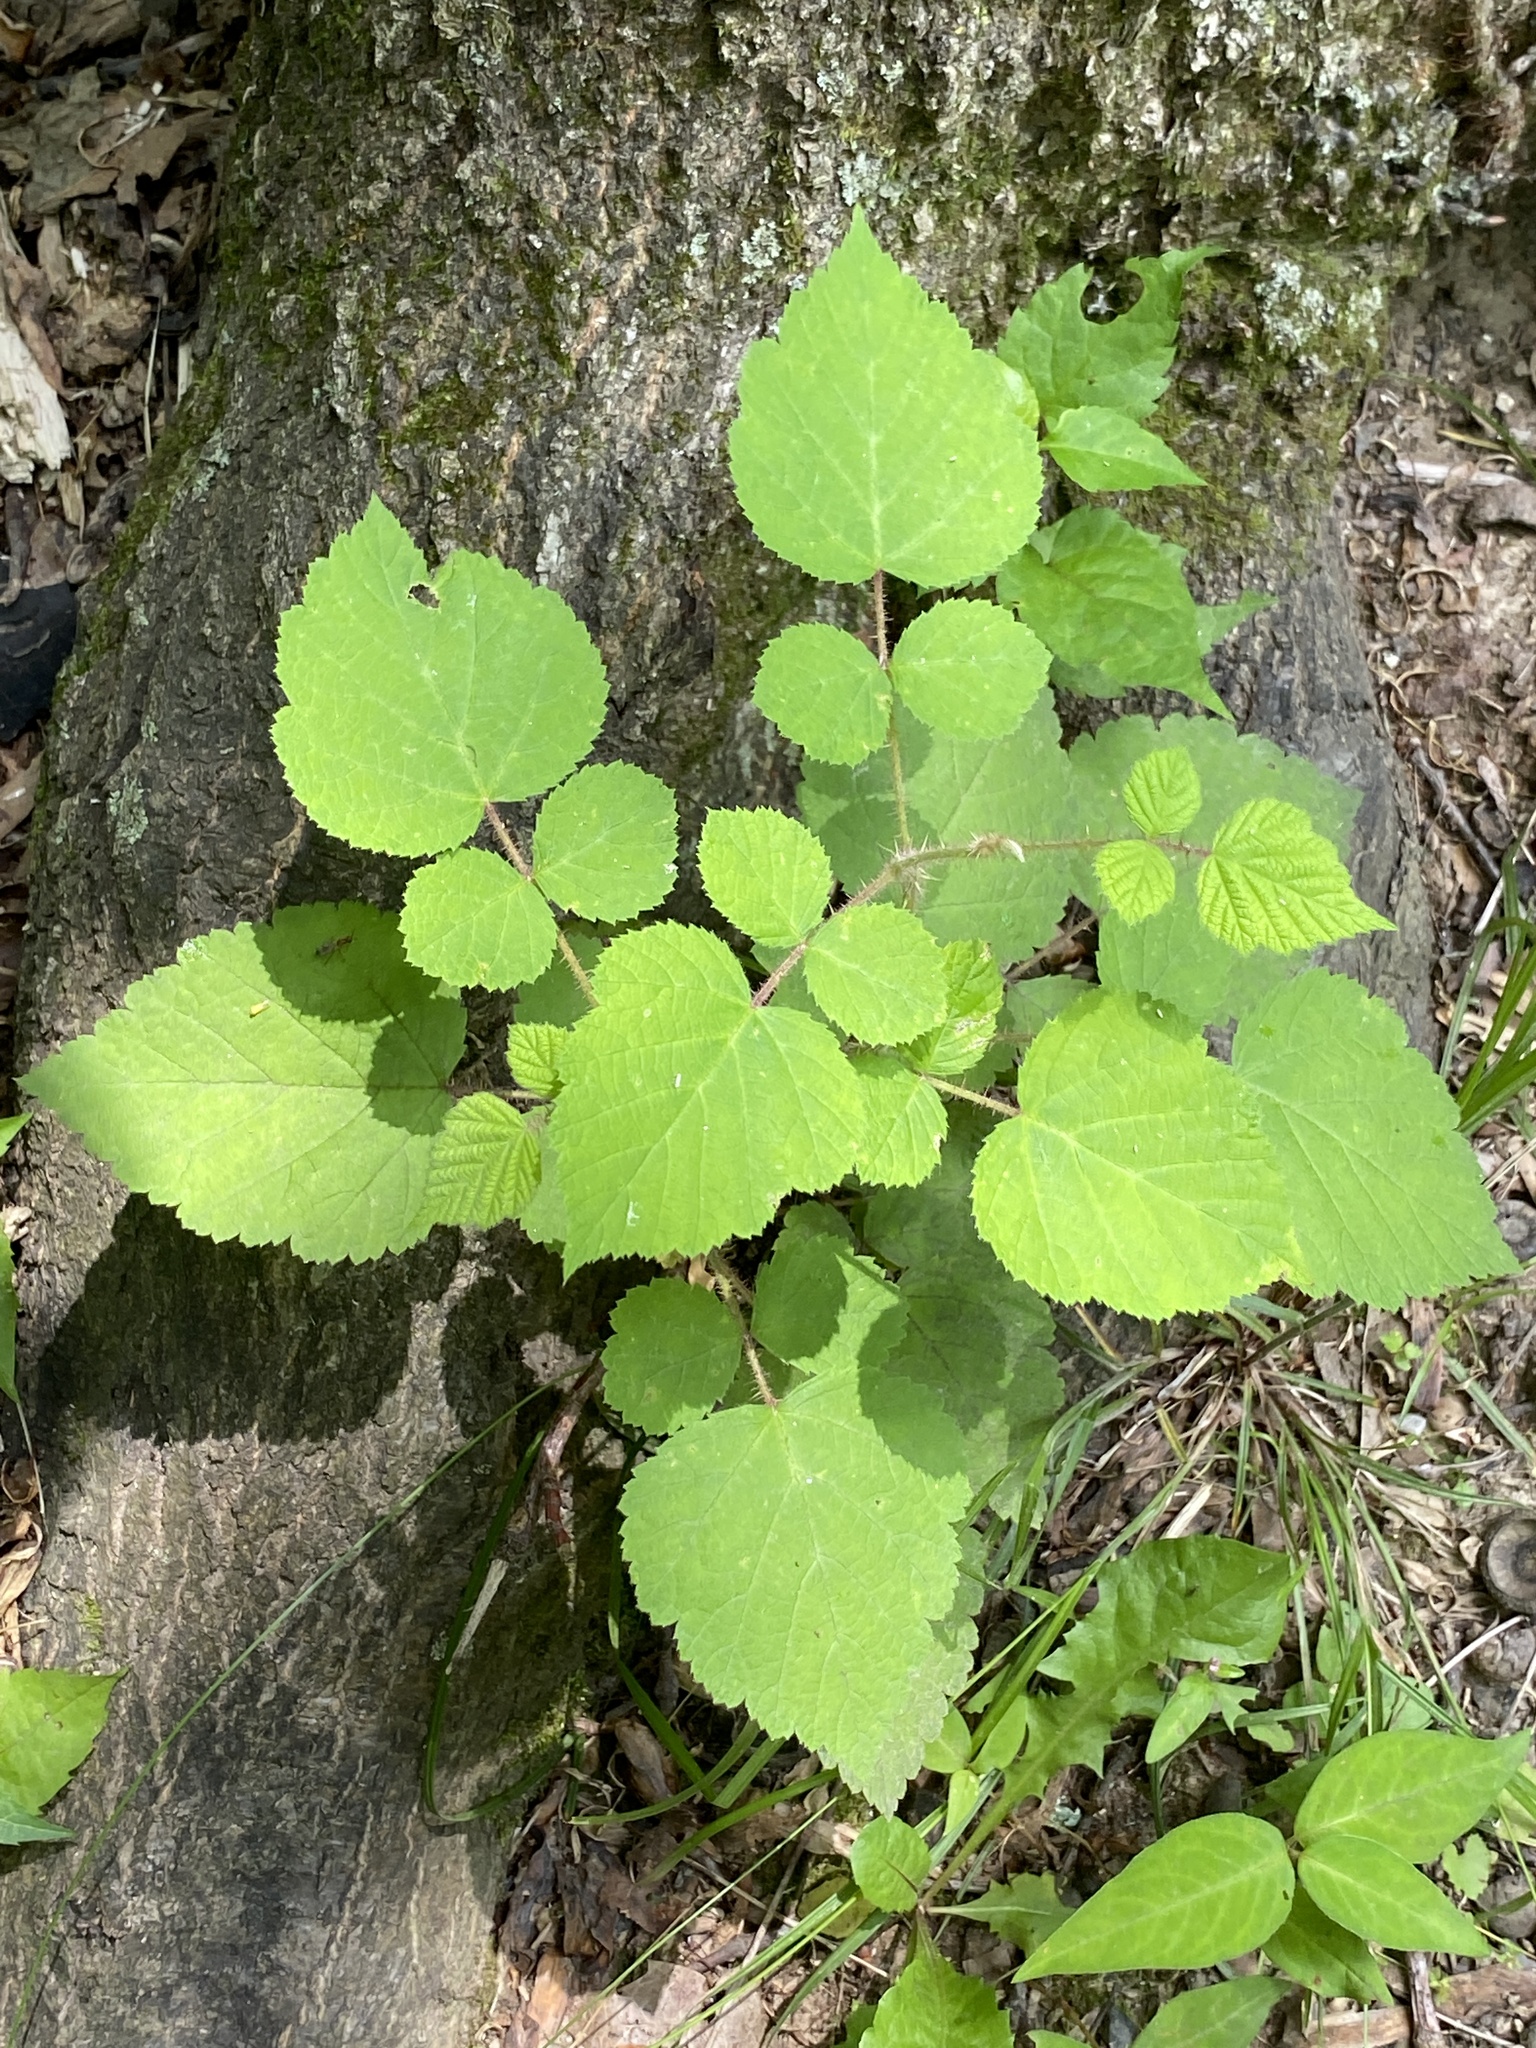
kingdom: Plantae
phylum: Tracheophyta
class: Magnoliopsida
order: Rosales
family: Rosaceae
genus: Rubus
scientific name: Rubus phoenicolasius
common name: Japanese wineberry
